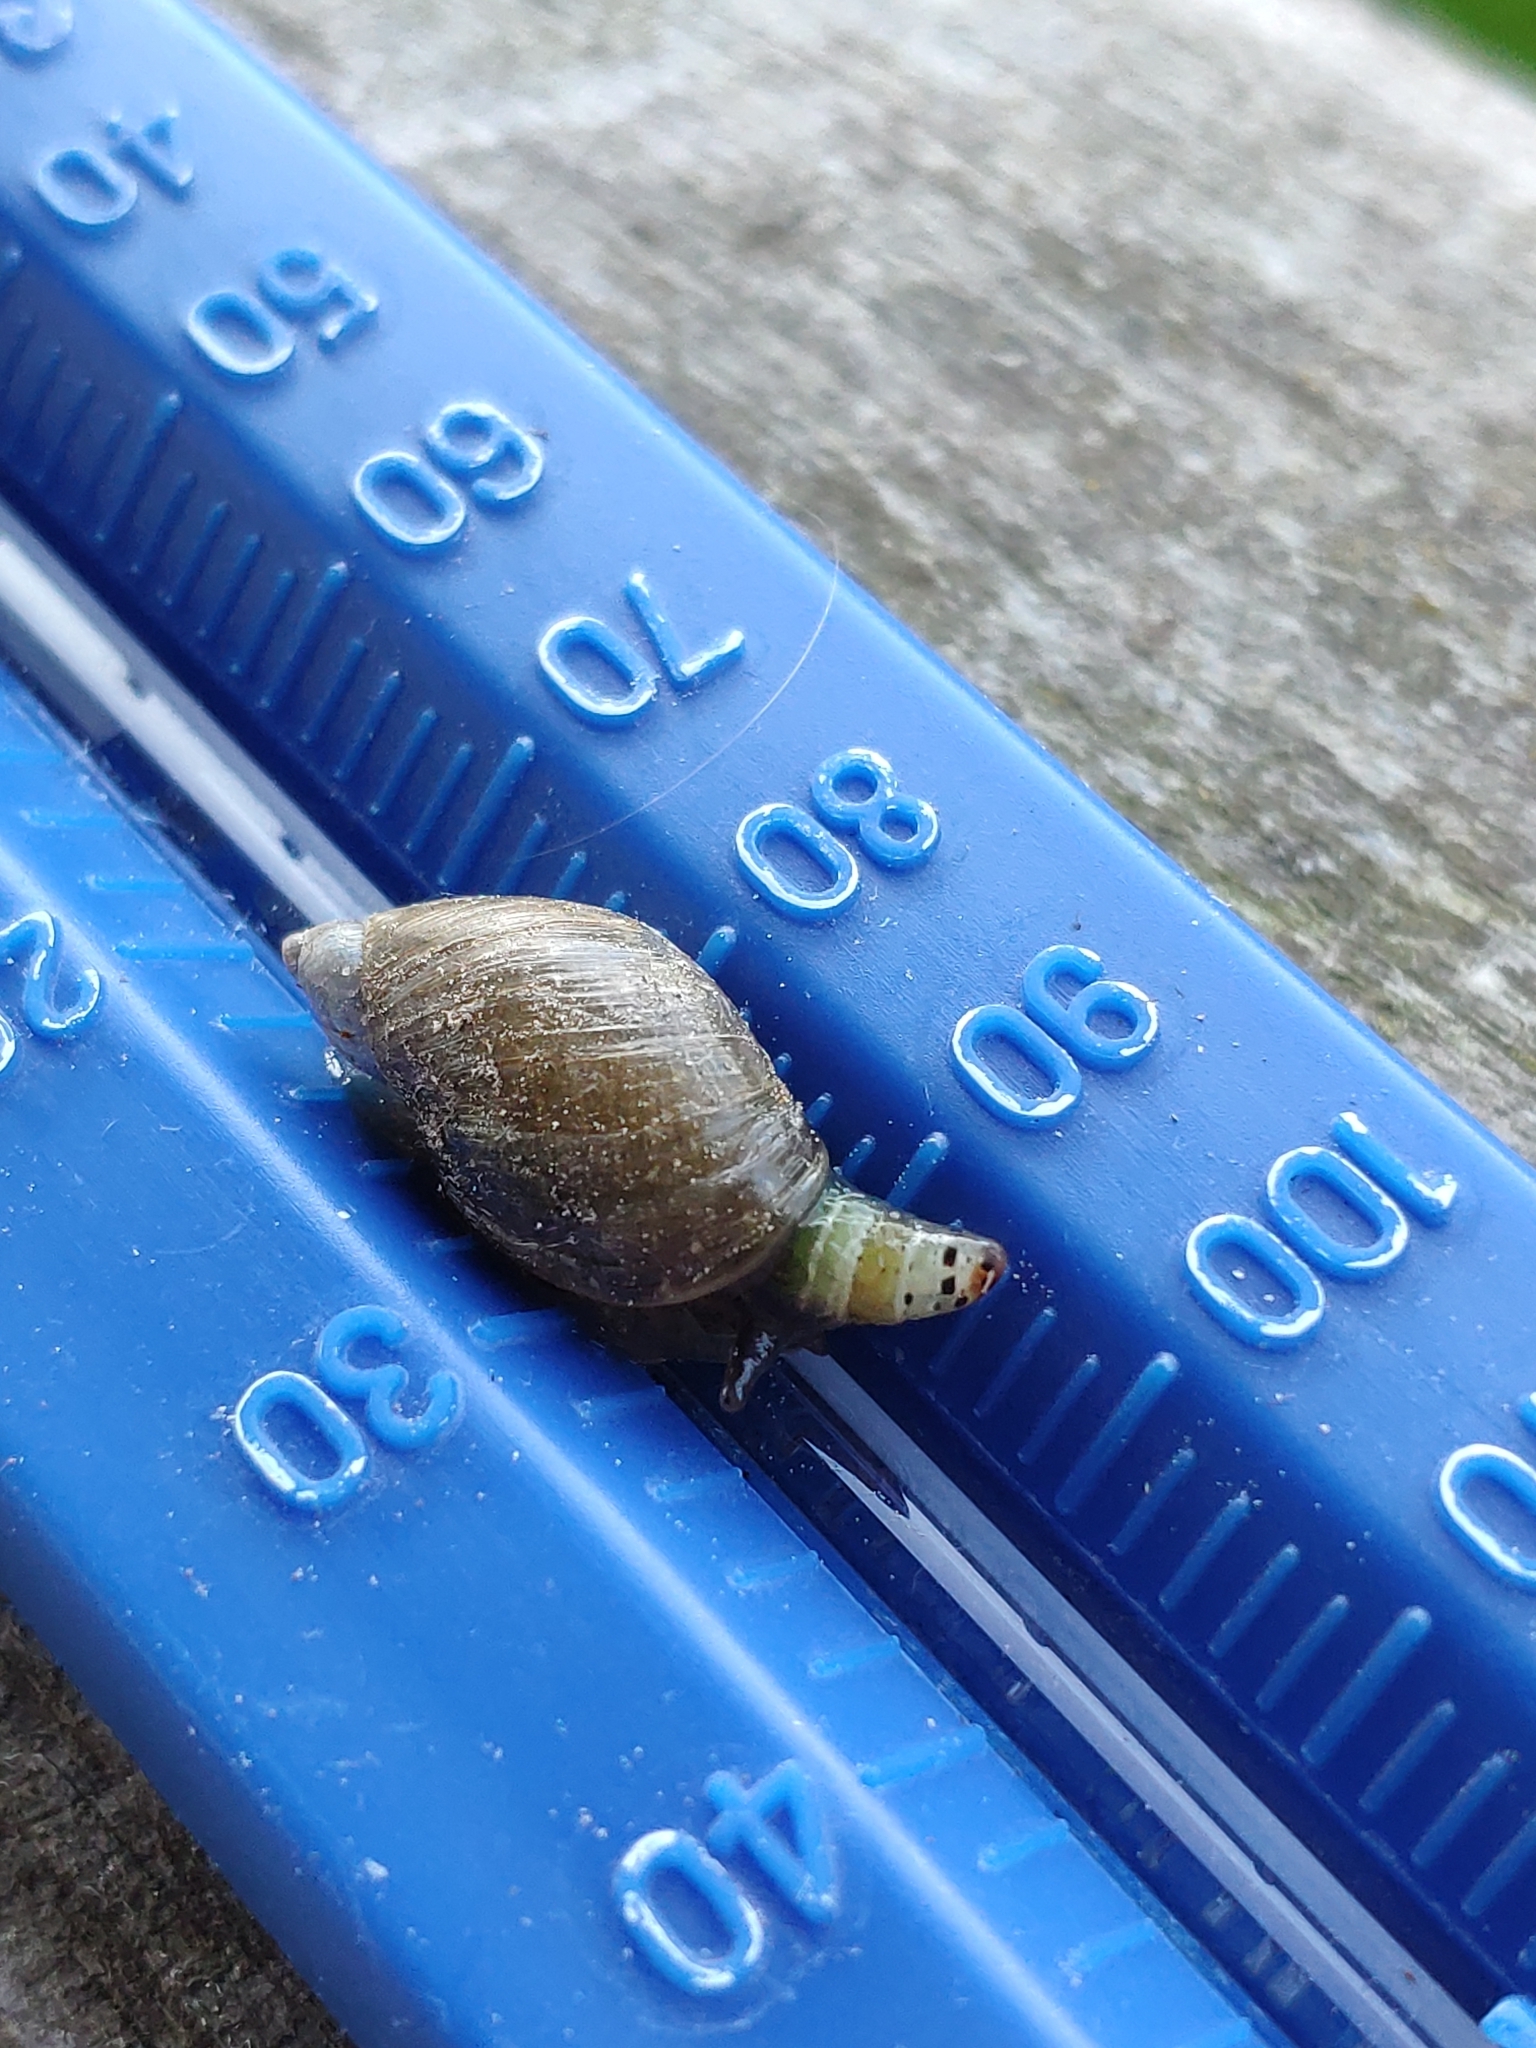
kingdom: Animalia
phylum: Platyhelminthes
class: Trematoda
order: Diplostomida
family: Leucochloridiidae
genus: Leucochloridium
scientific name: Leucochloridium paradoxum
